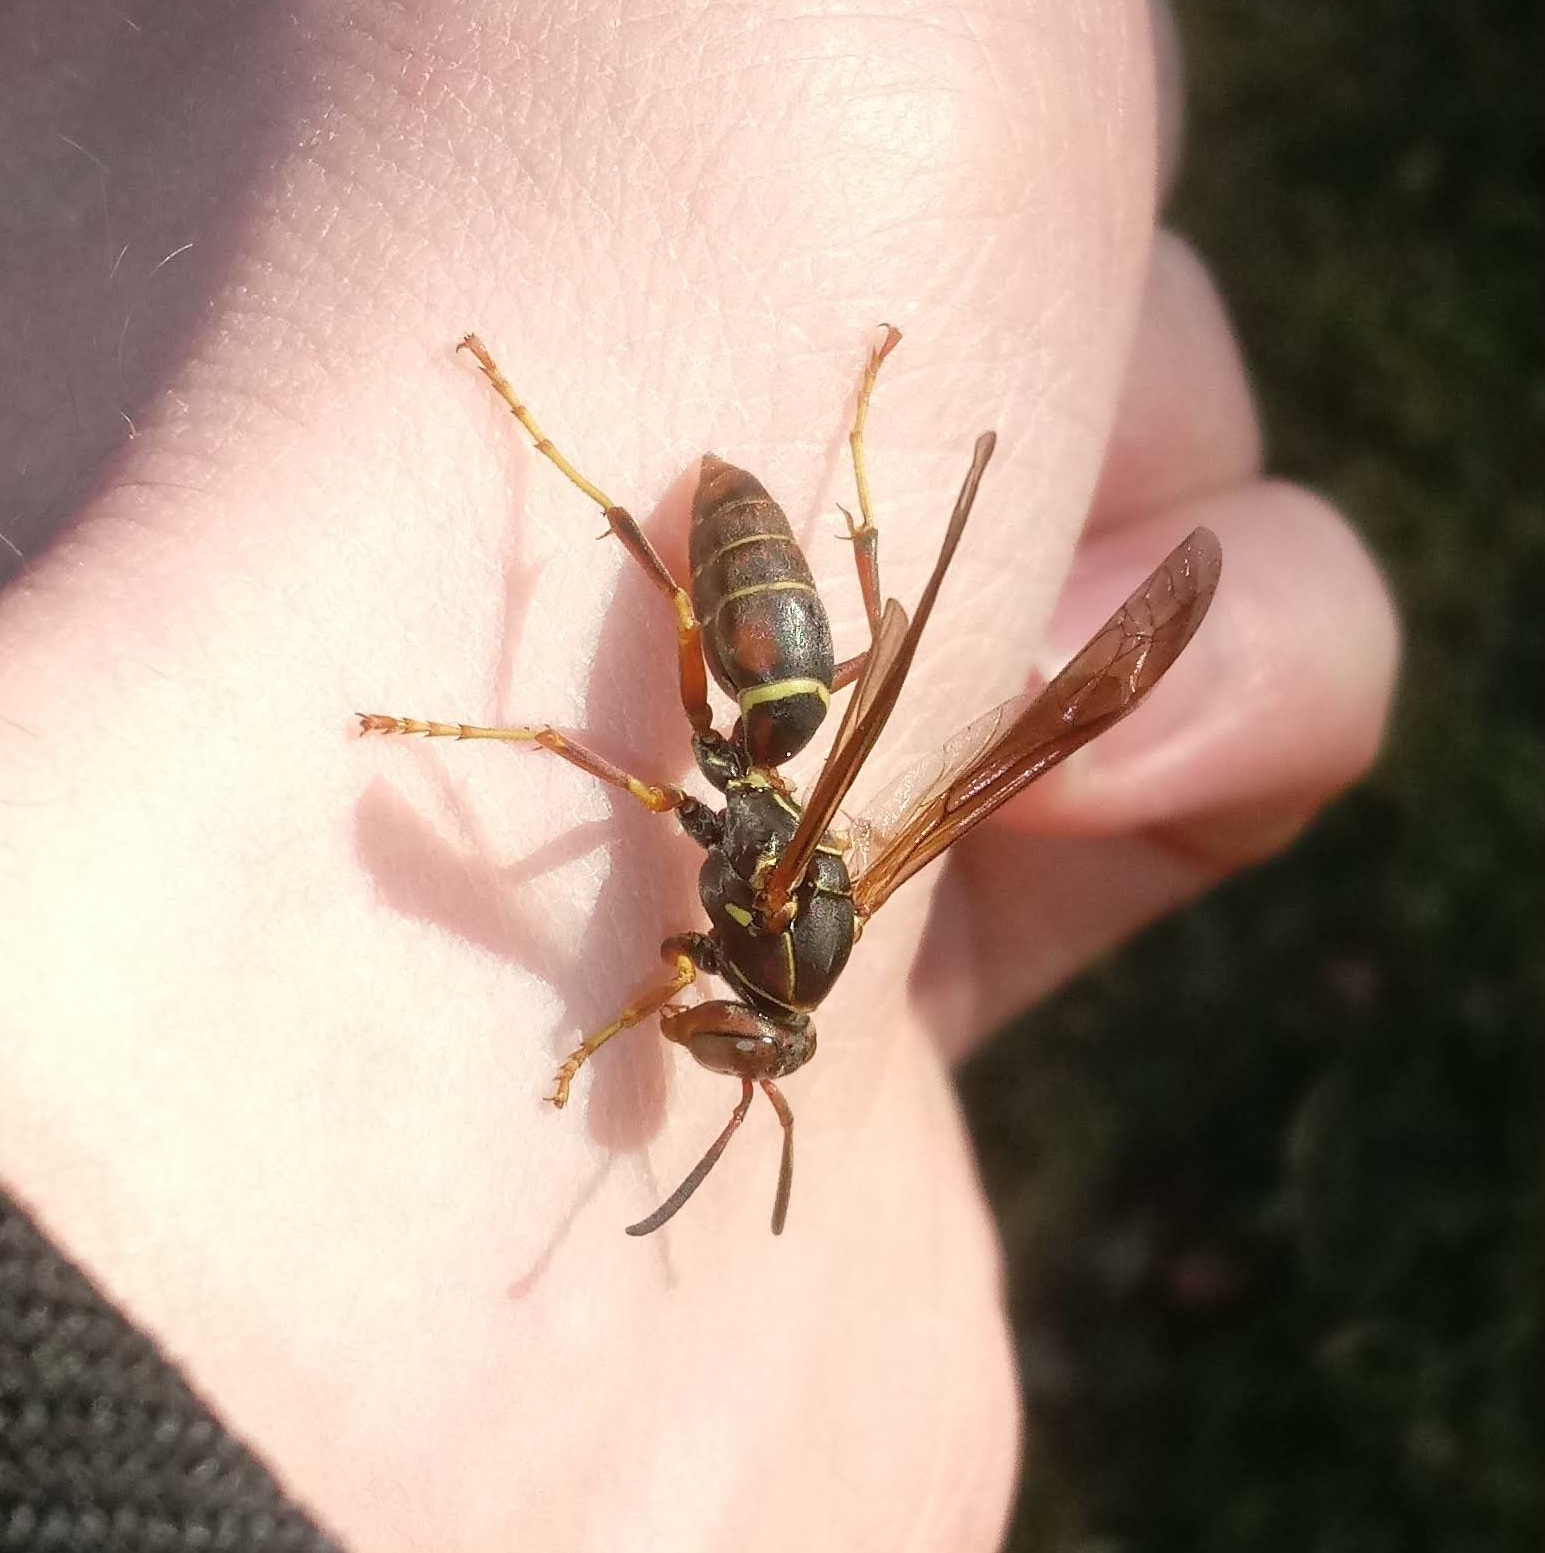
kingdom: Animalia
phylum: Arthropoda
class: Insecta
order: Hymenoptera
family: Eumenidae
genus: Polistes
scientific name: Polistes fuscatus
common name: Dark paper wasp
